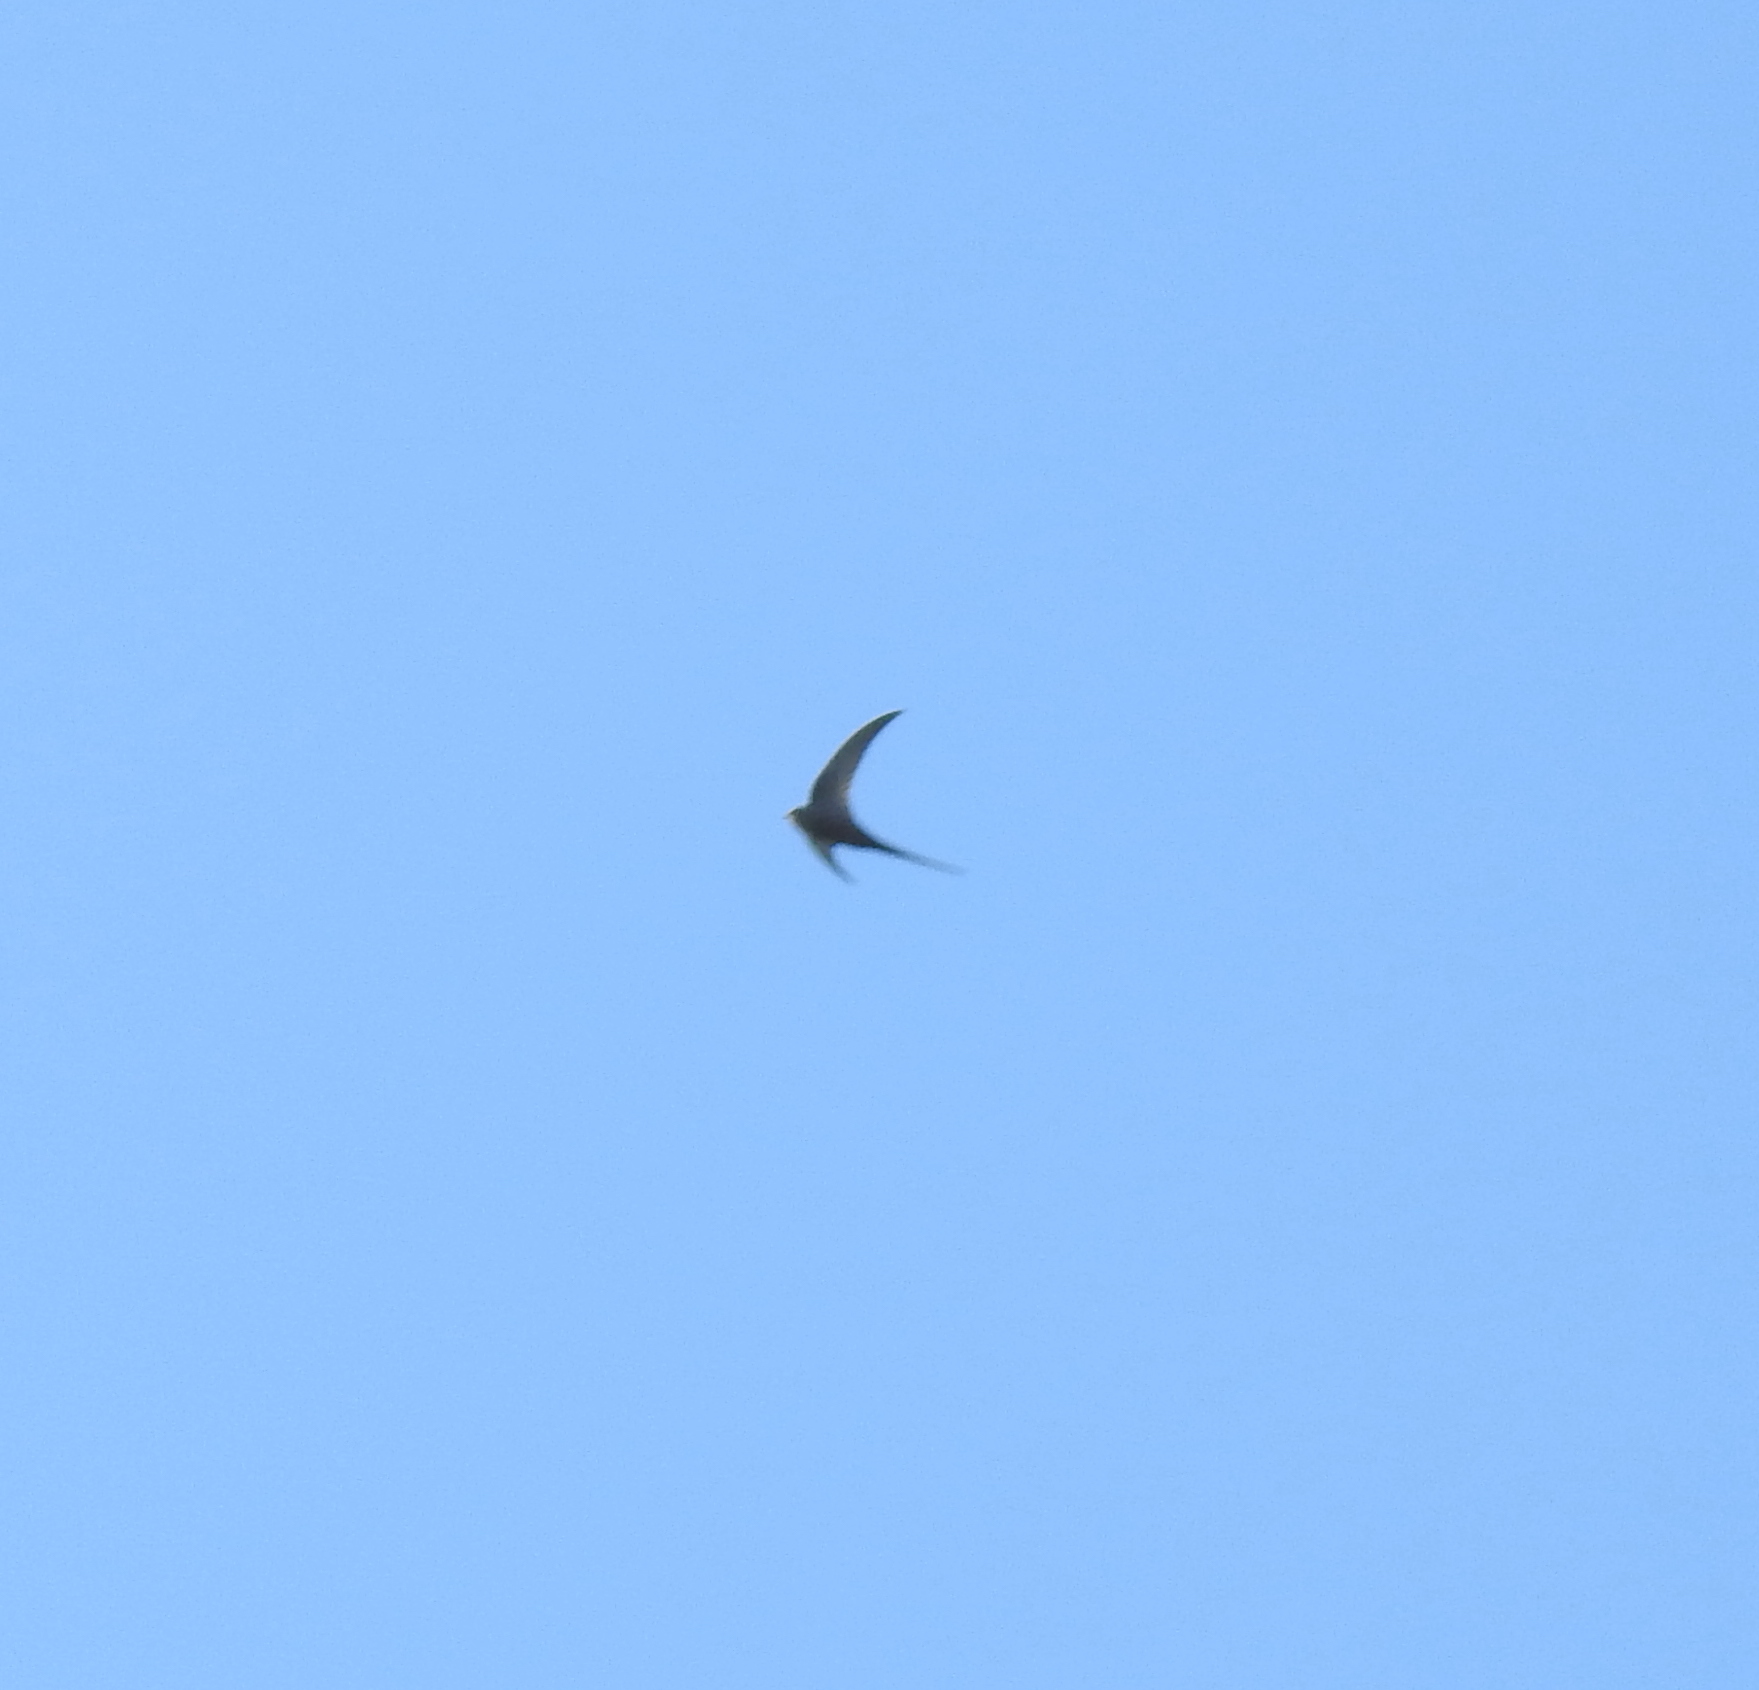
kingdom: Animalia
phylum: Chordata
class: Aves
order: Apodiformes
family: Apodidae
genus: Cypsiurus
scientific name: Cypsiurus parvus
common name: African palm swift
